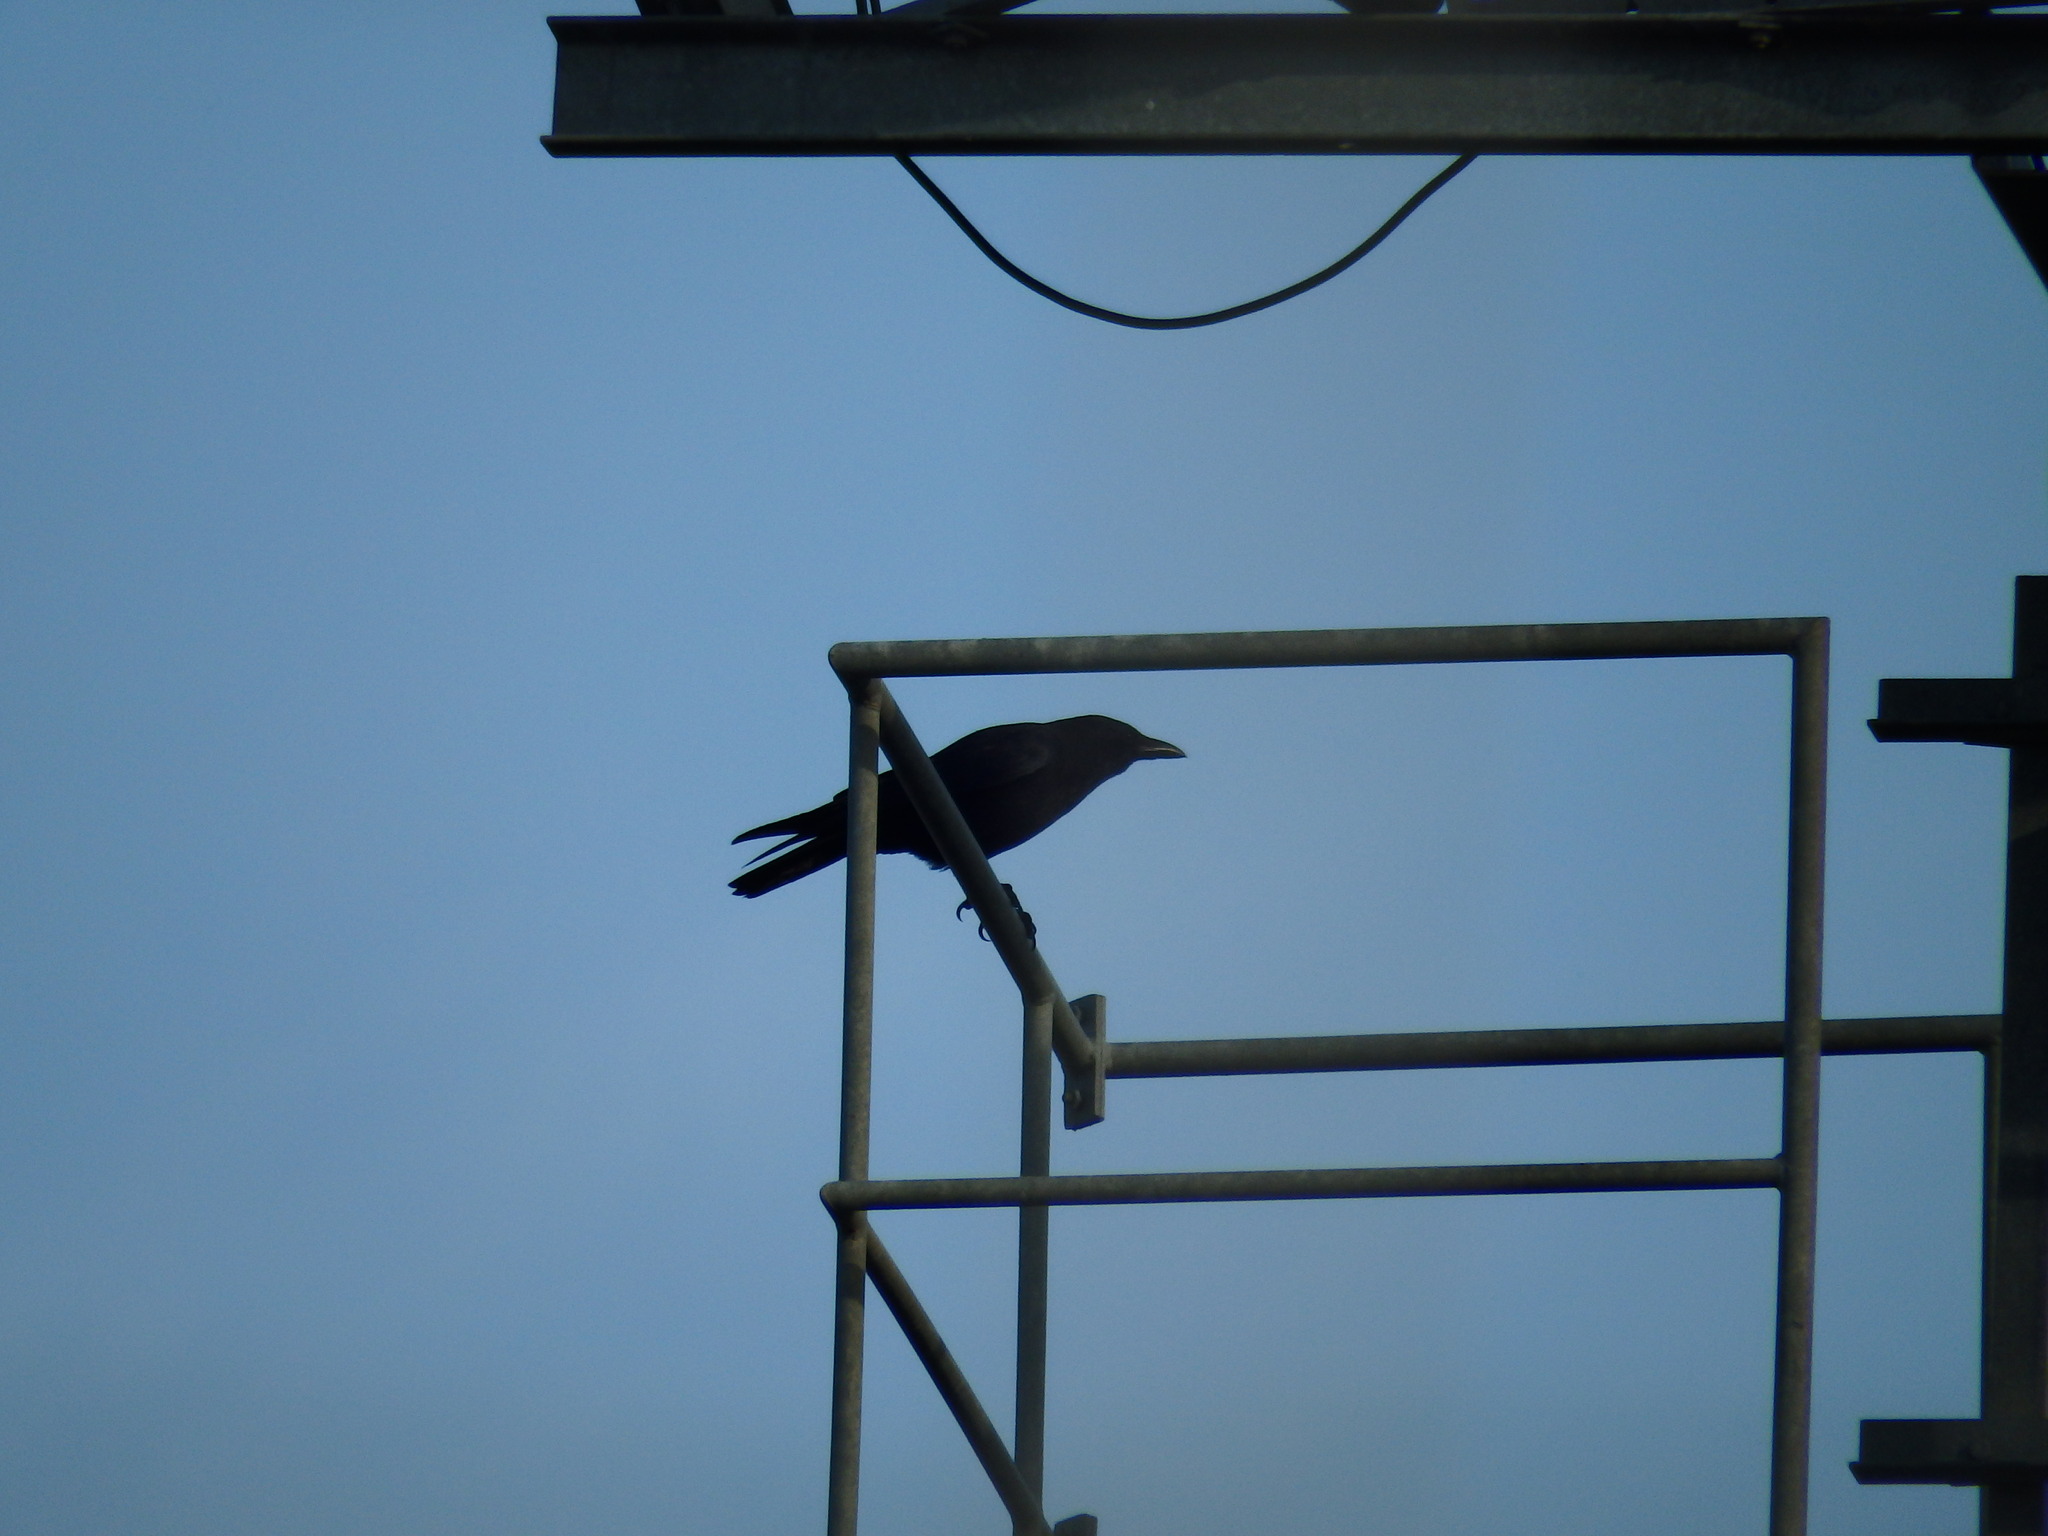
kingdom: Animalia
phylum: Chordata
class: Aves
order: Passeriformes
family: Corvidae
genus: Corvus
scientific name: Corvus corone
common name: Carrion crow
